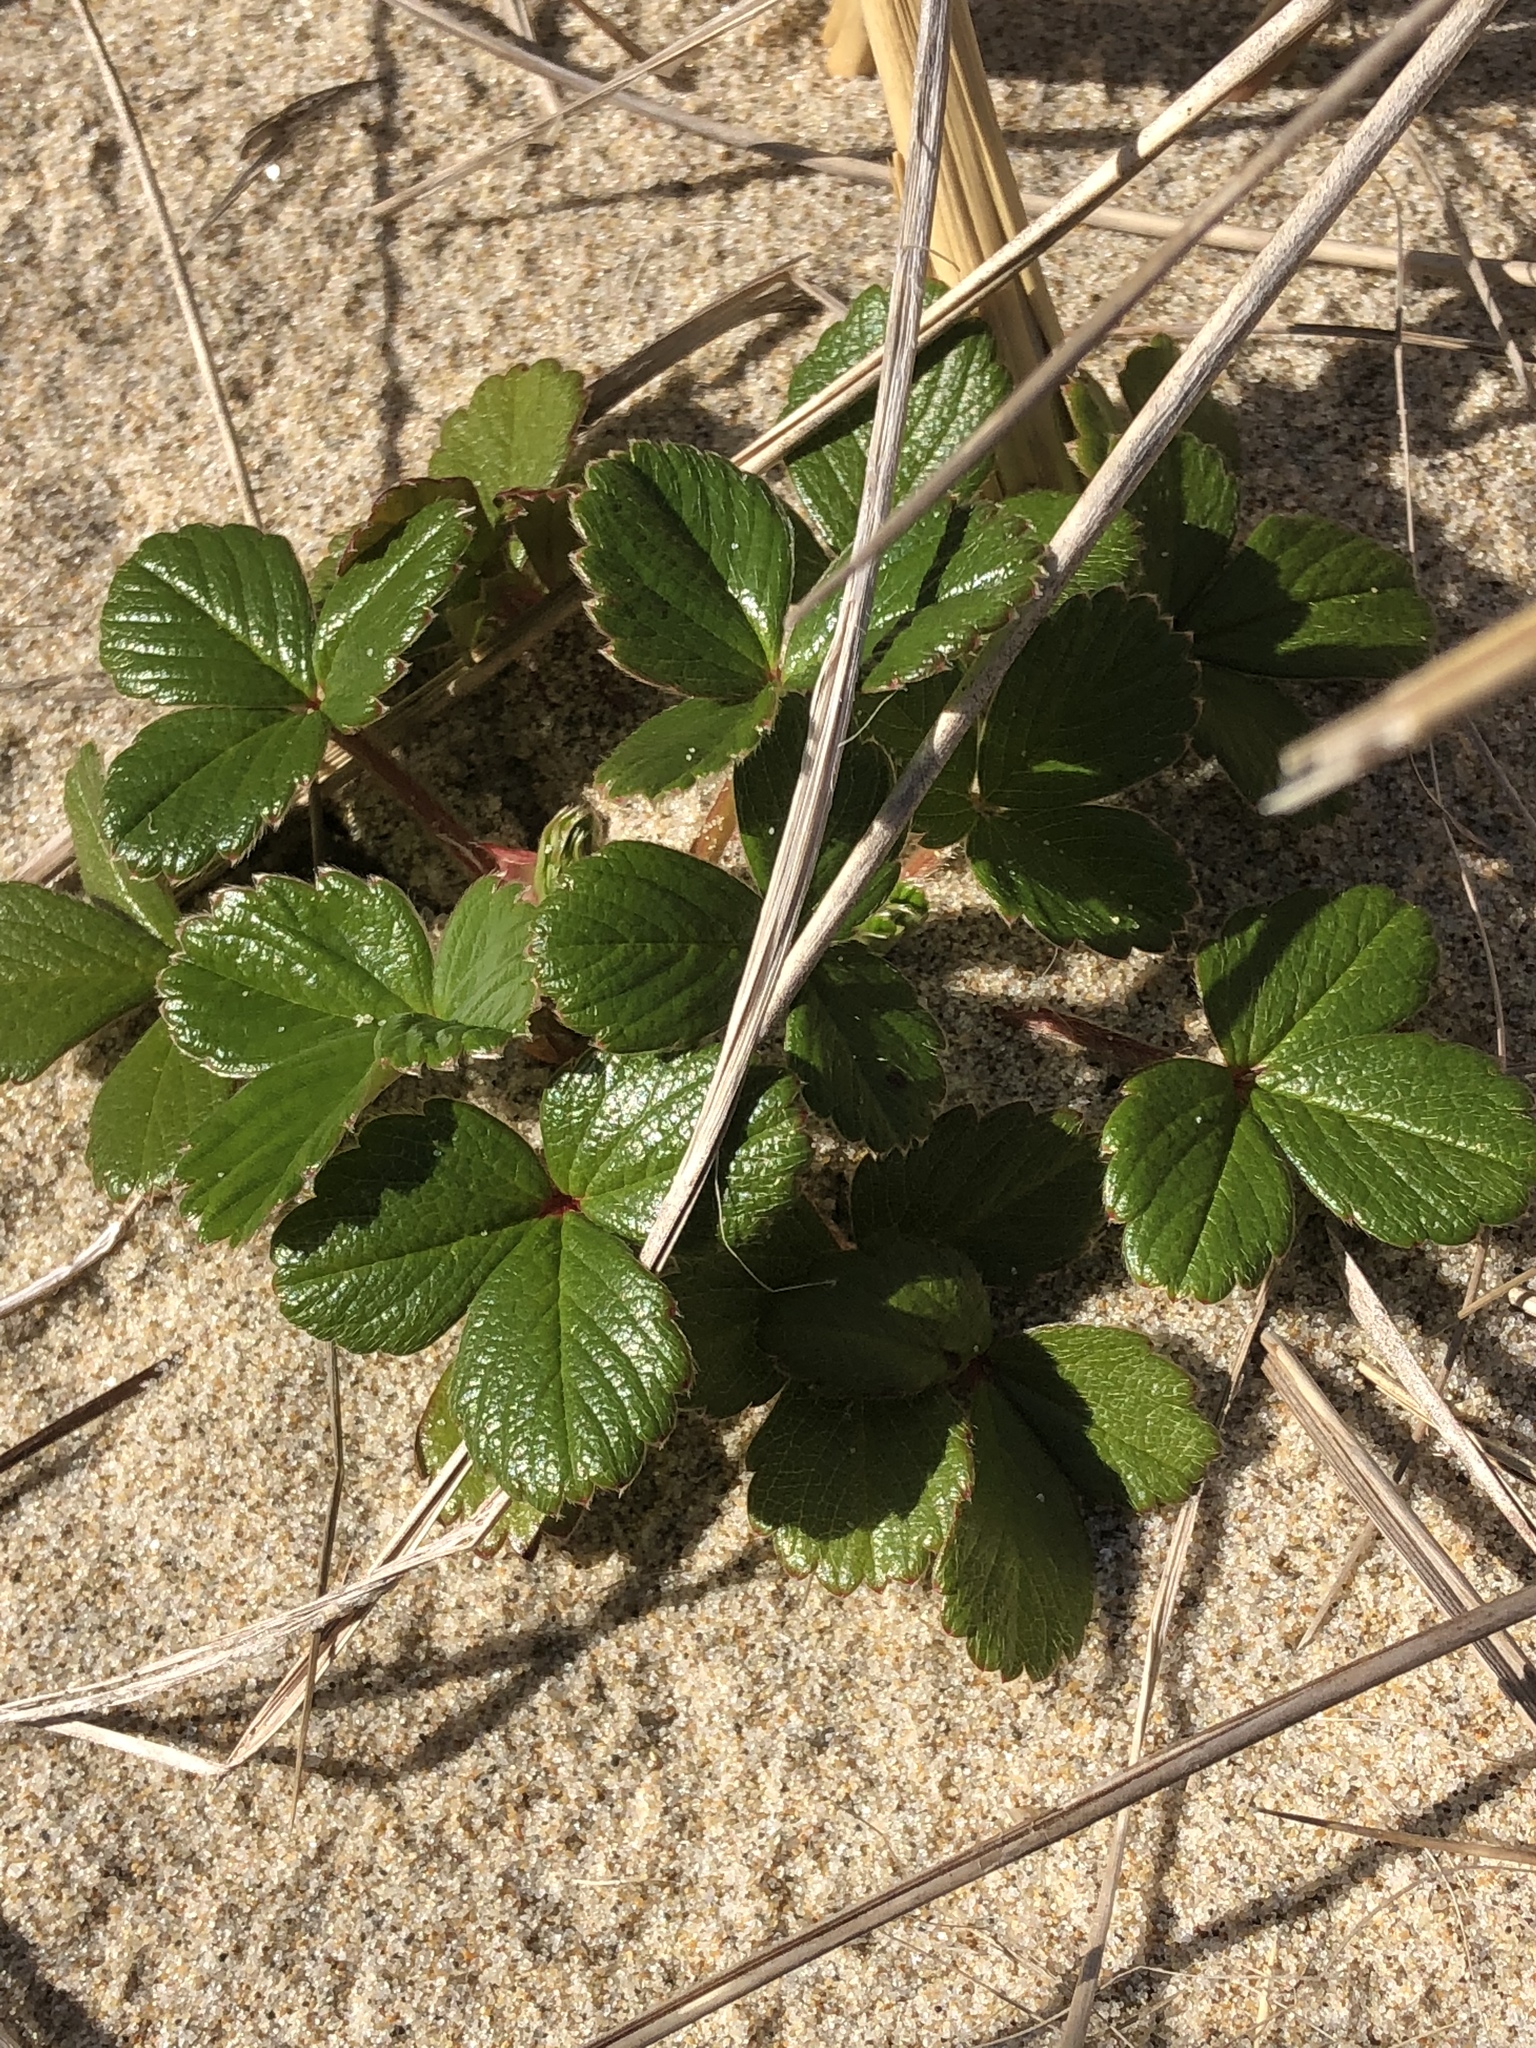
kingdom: Plantae
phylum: Tracheophyta
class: Magnoliopsida
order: Rosales
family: Rosaceae
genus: Fragaria
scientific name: Fragaria chiloensis
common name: Beach strawberry
